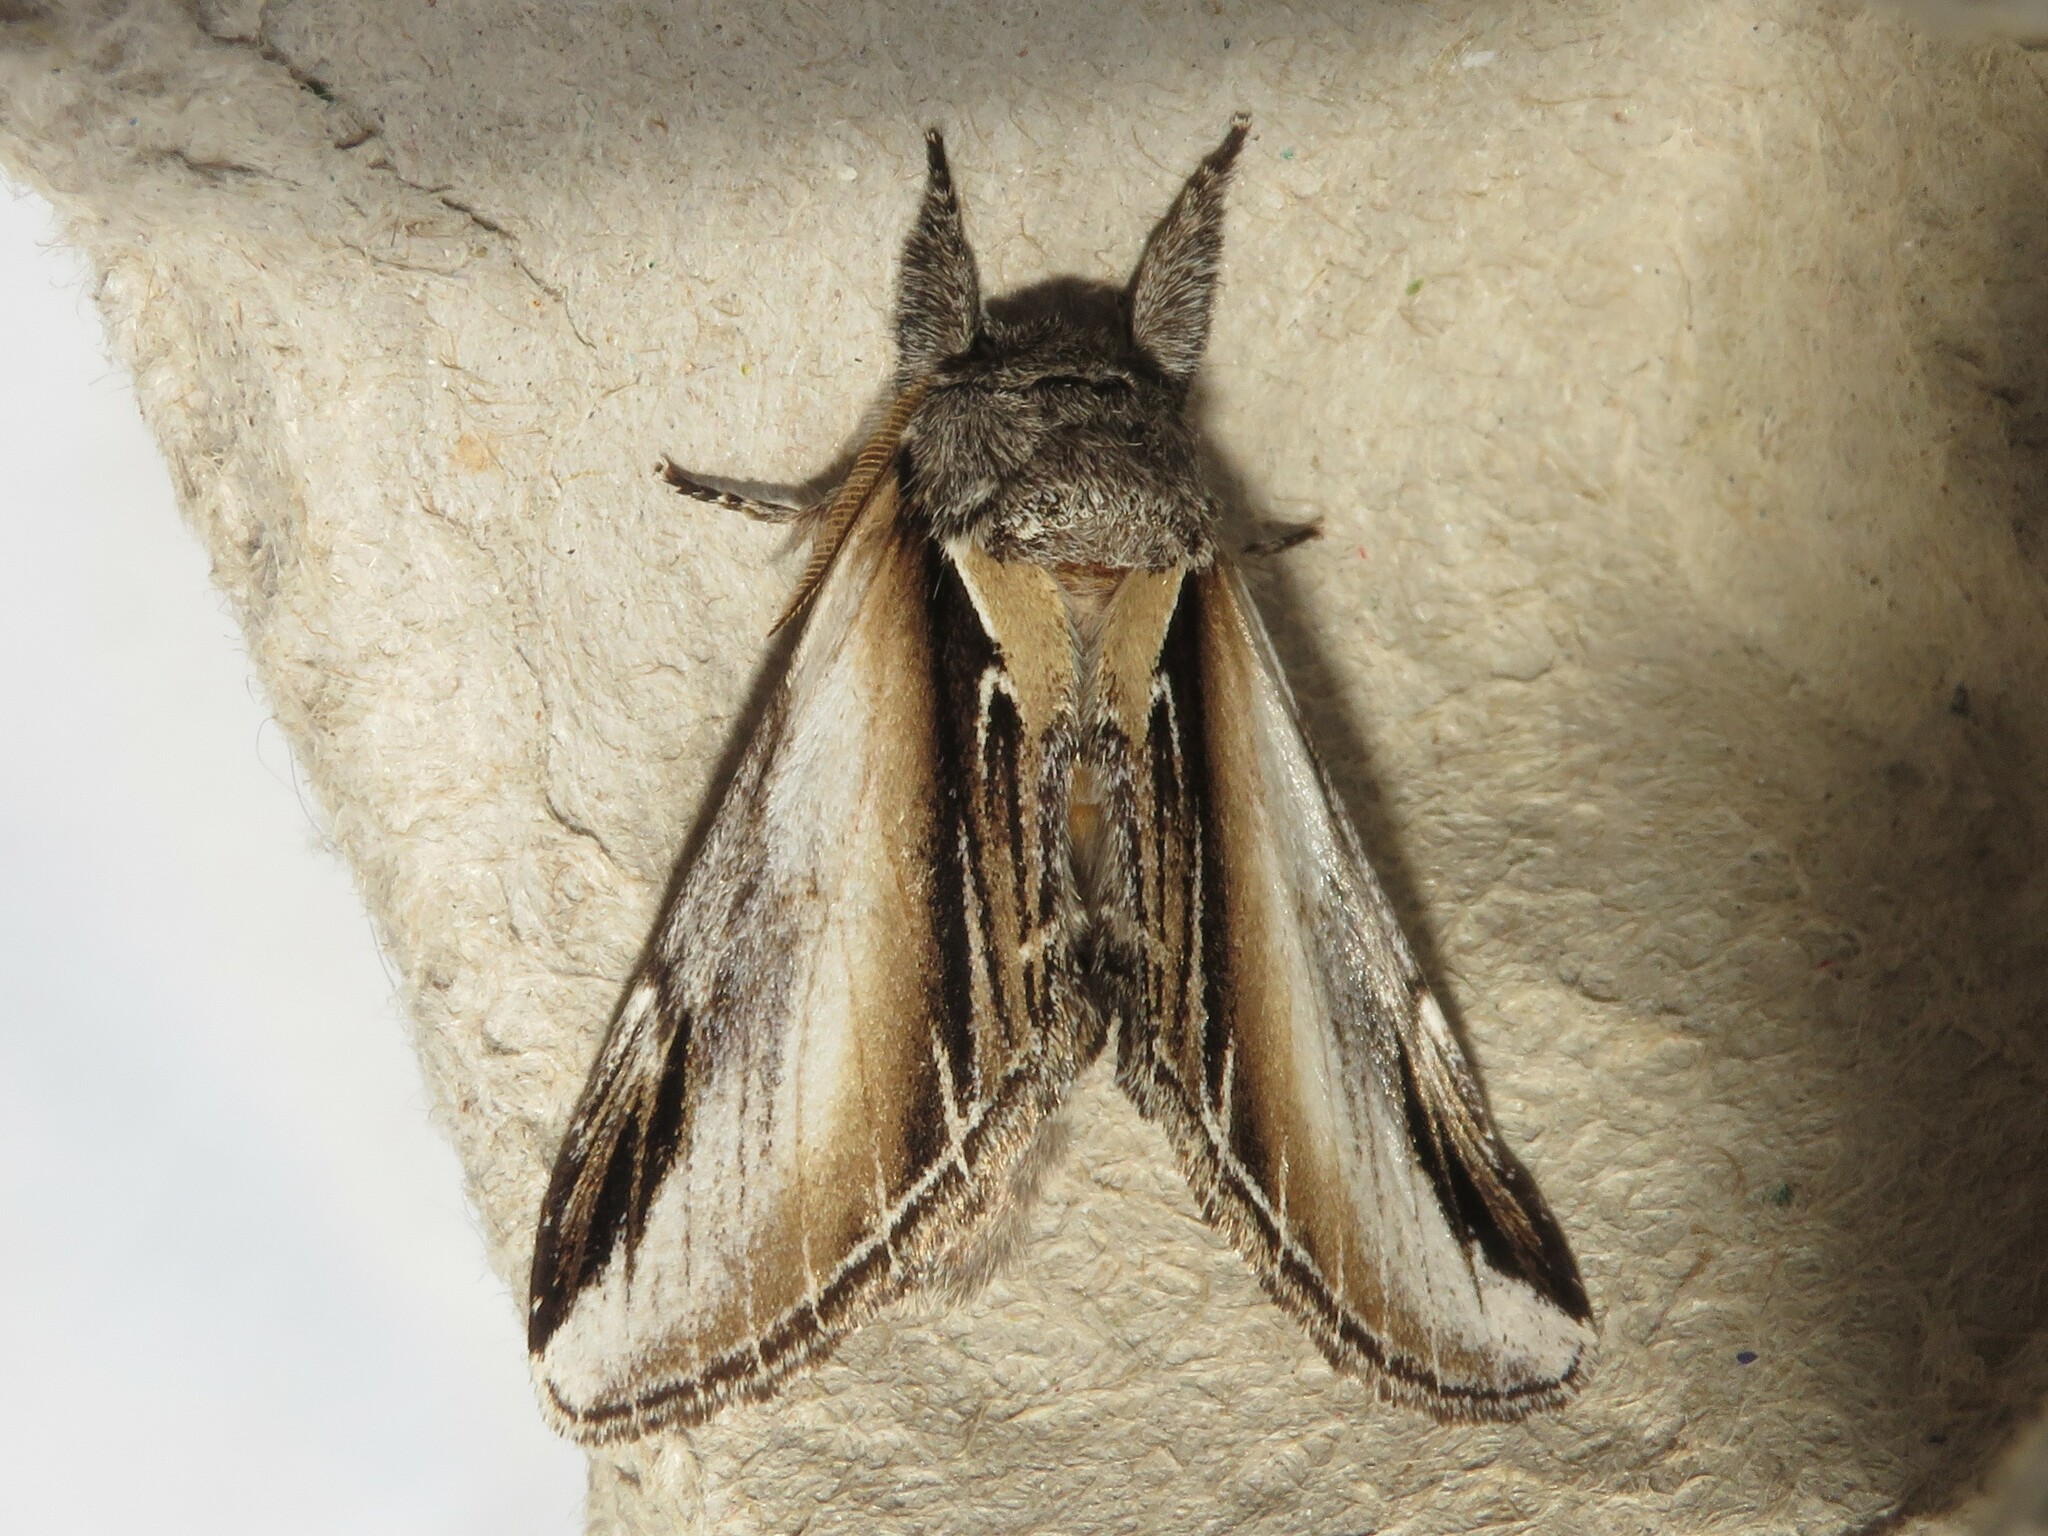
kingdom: Animalia
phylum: Arthropoda
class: Insecta
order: Lepidoptera
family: Notodontidae
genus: Pheosia
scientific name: Pheosia rimosa
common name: Black-rimmed prominent
